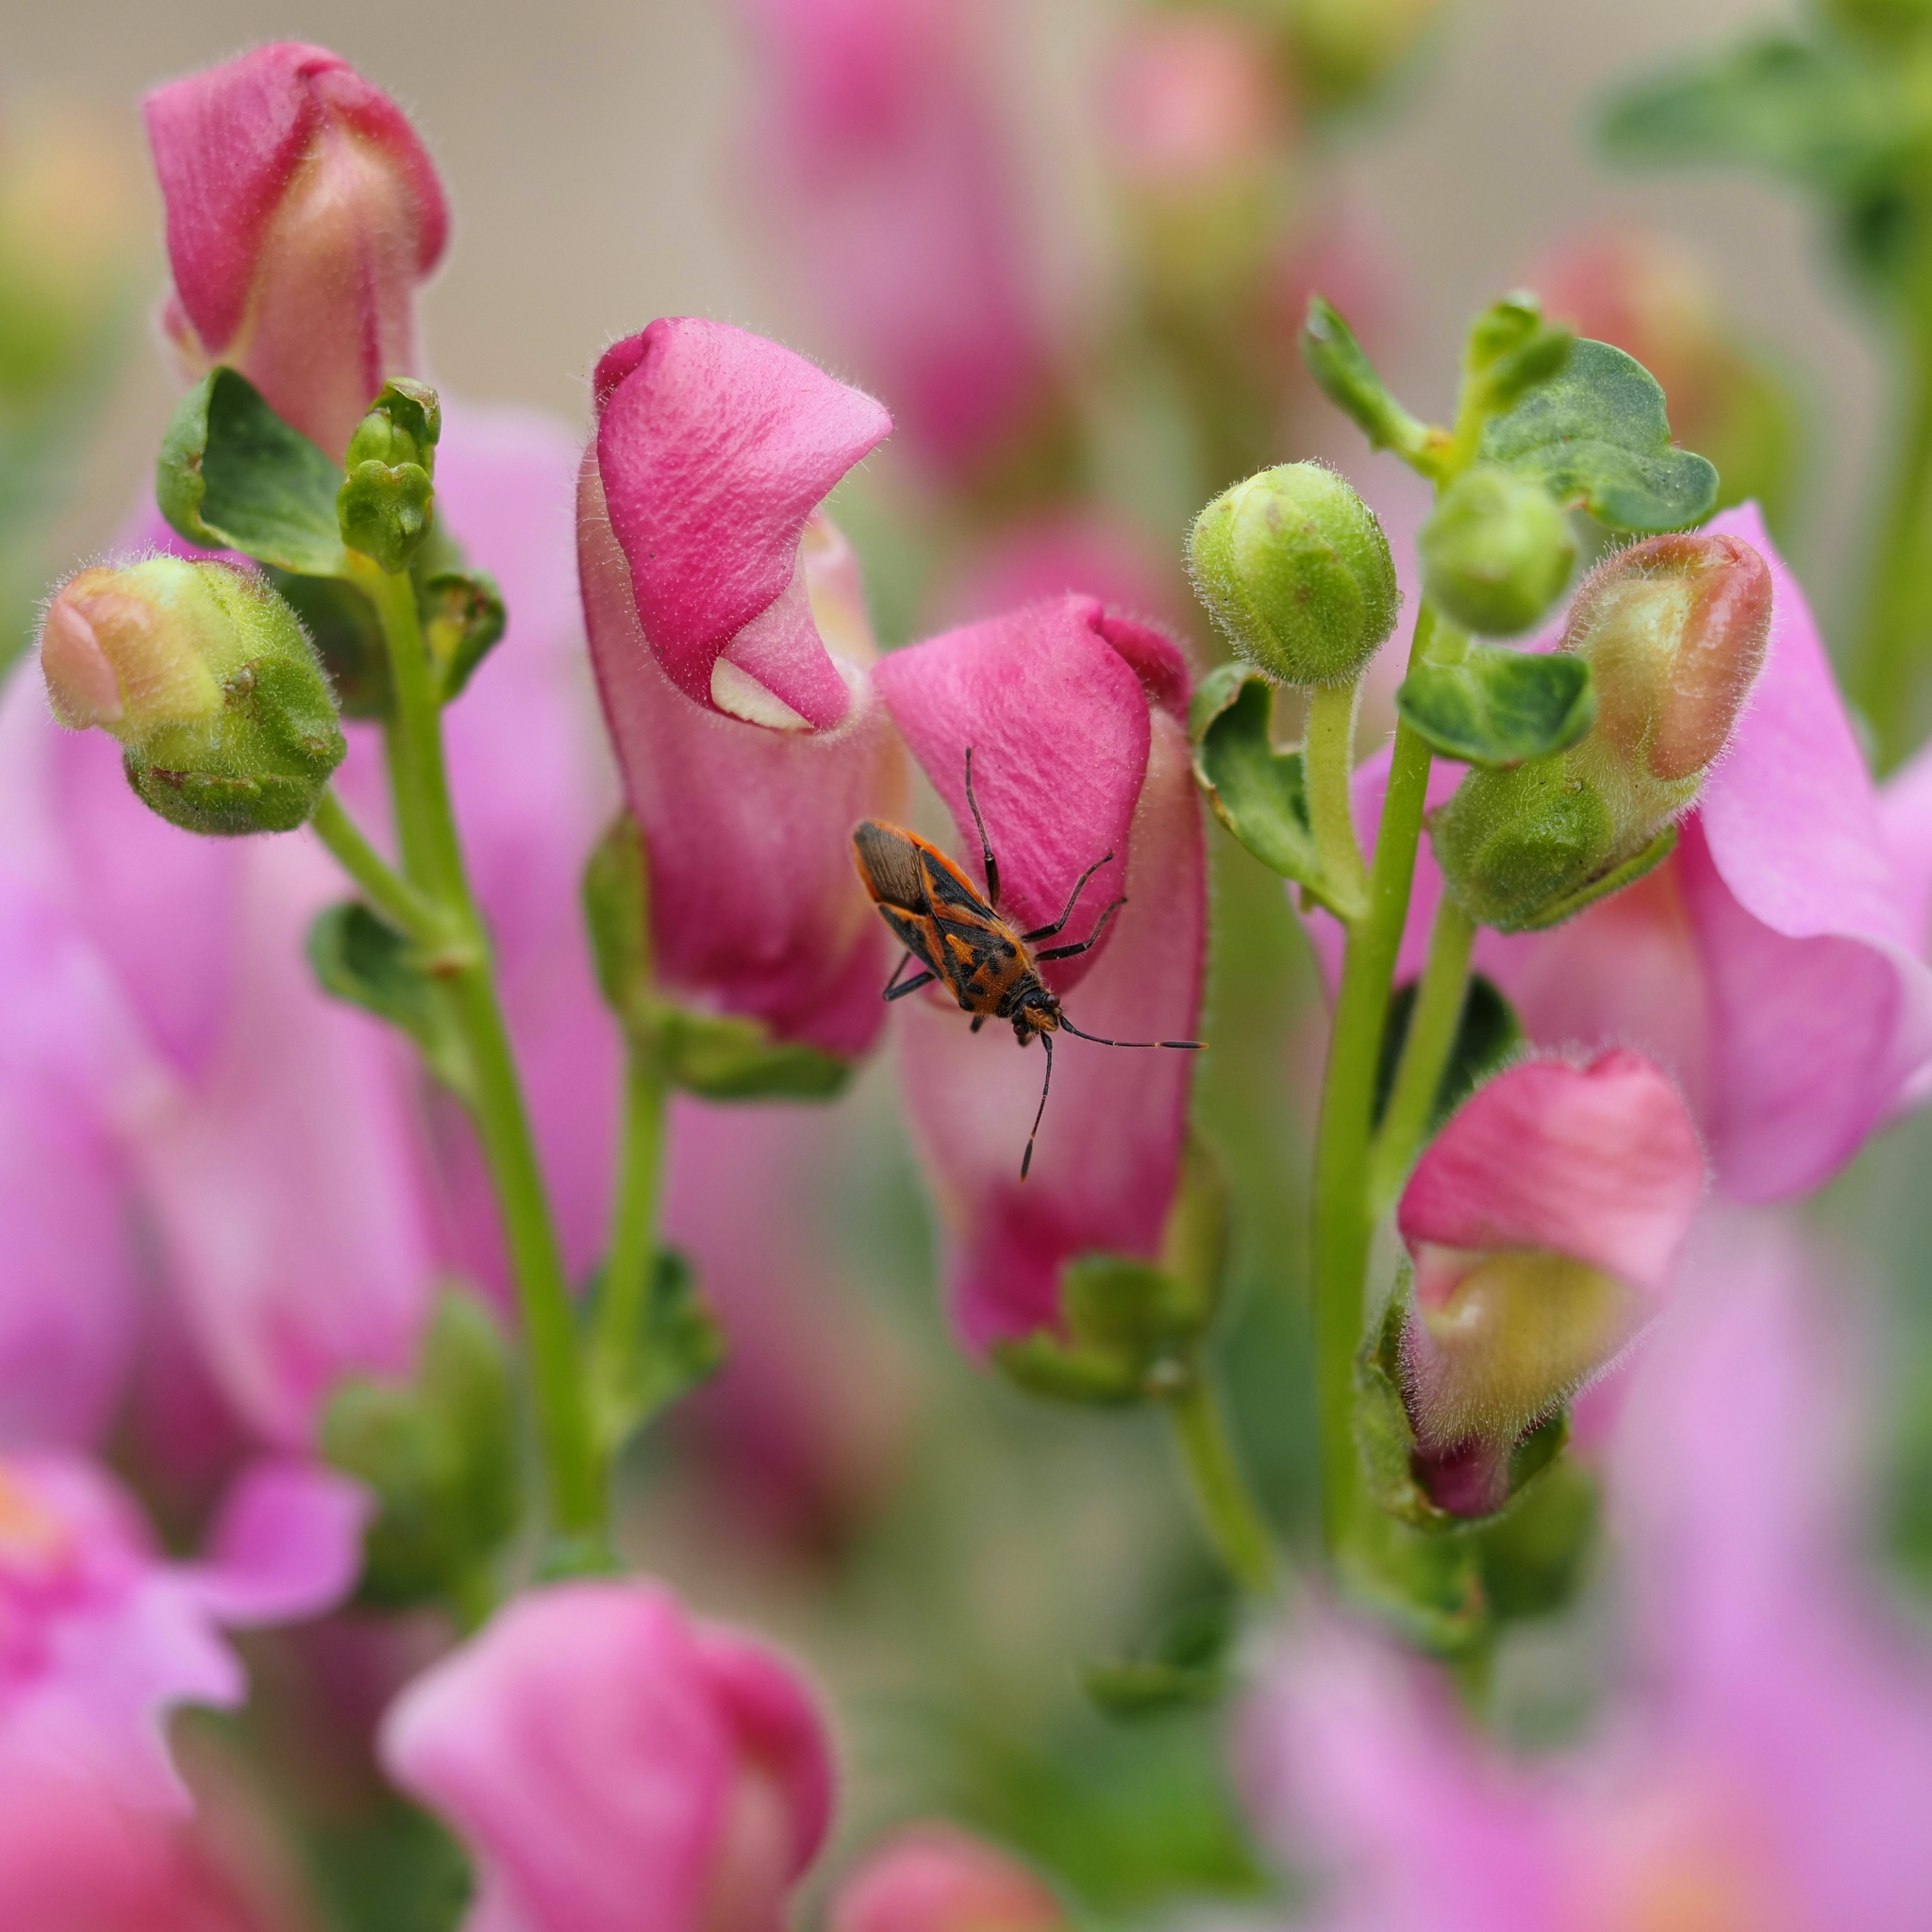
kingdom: Animalia
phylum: Arthropoda
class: Insecta
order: Hemiptera
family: Rhopalidae
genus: Corizus
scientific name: Corizus hyoscyami
